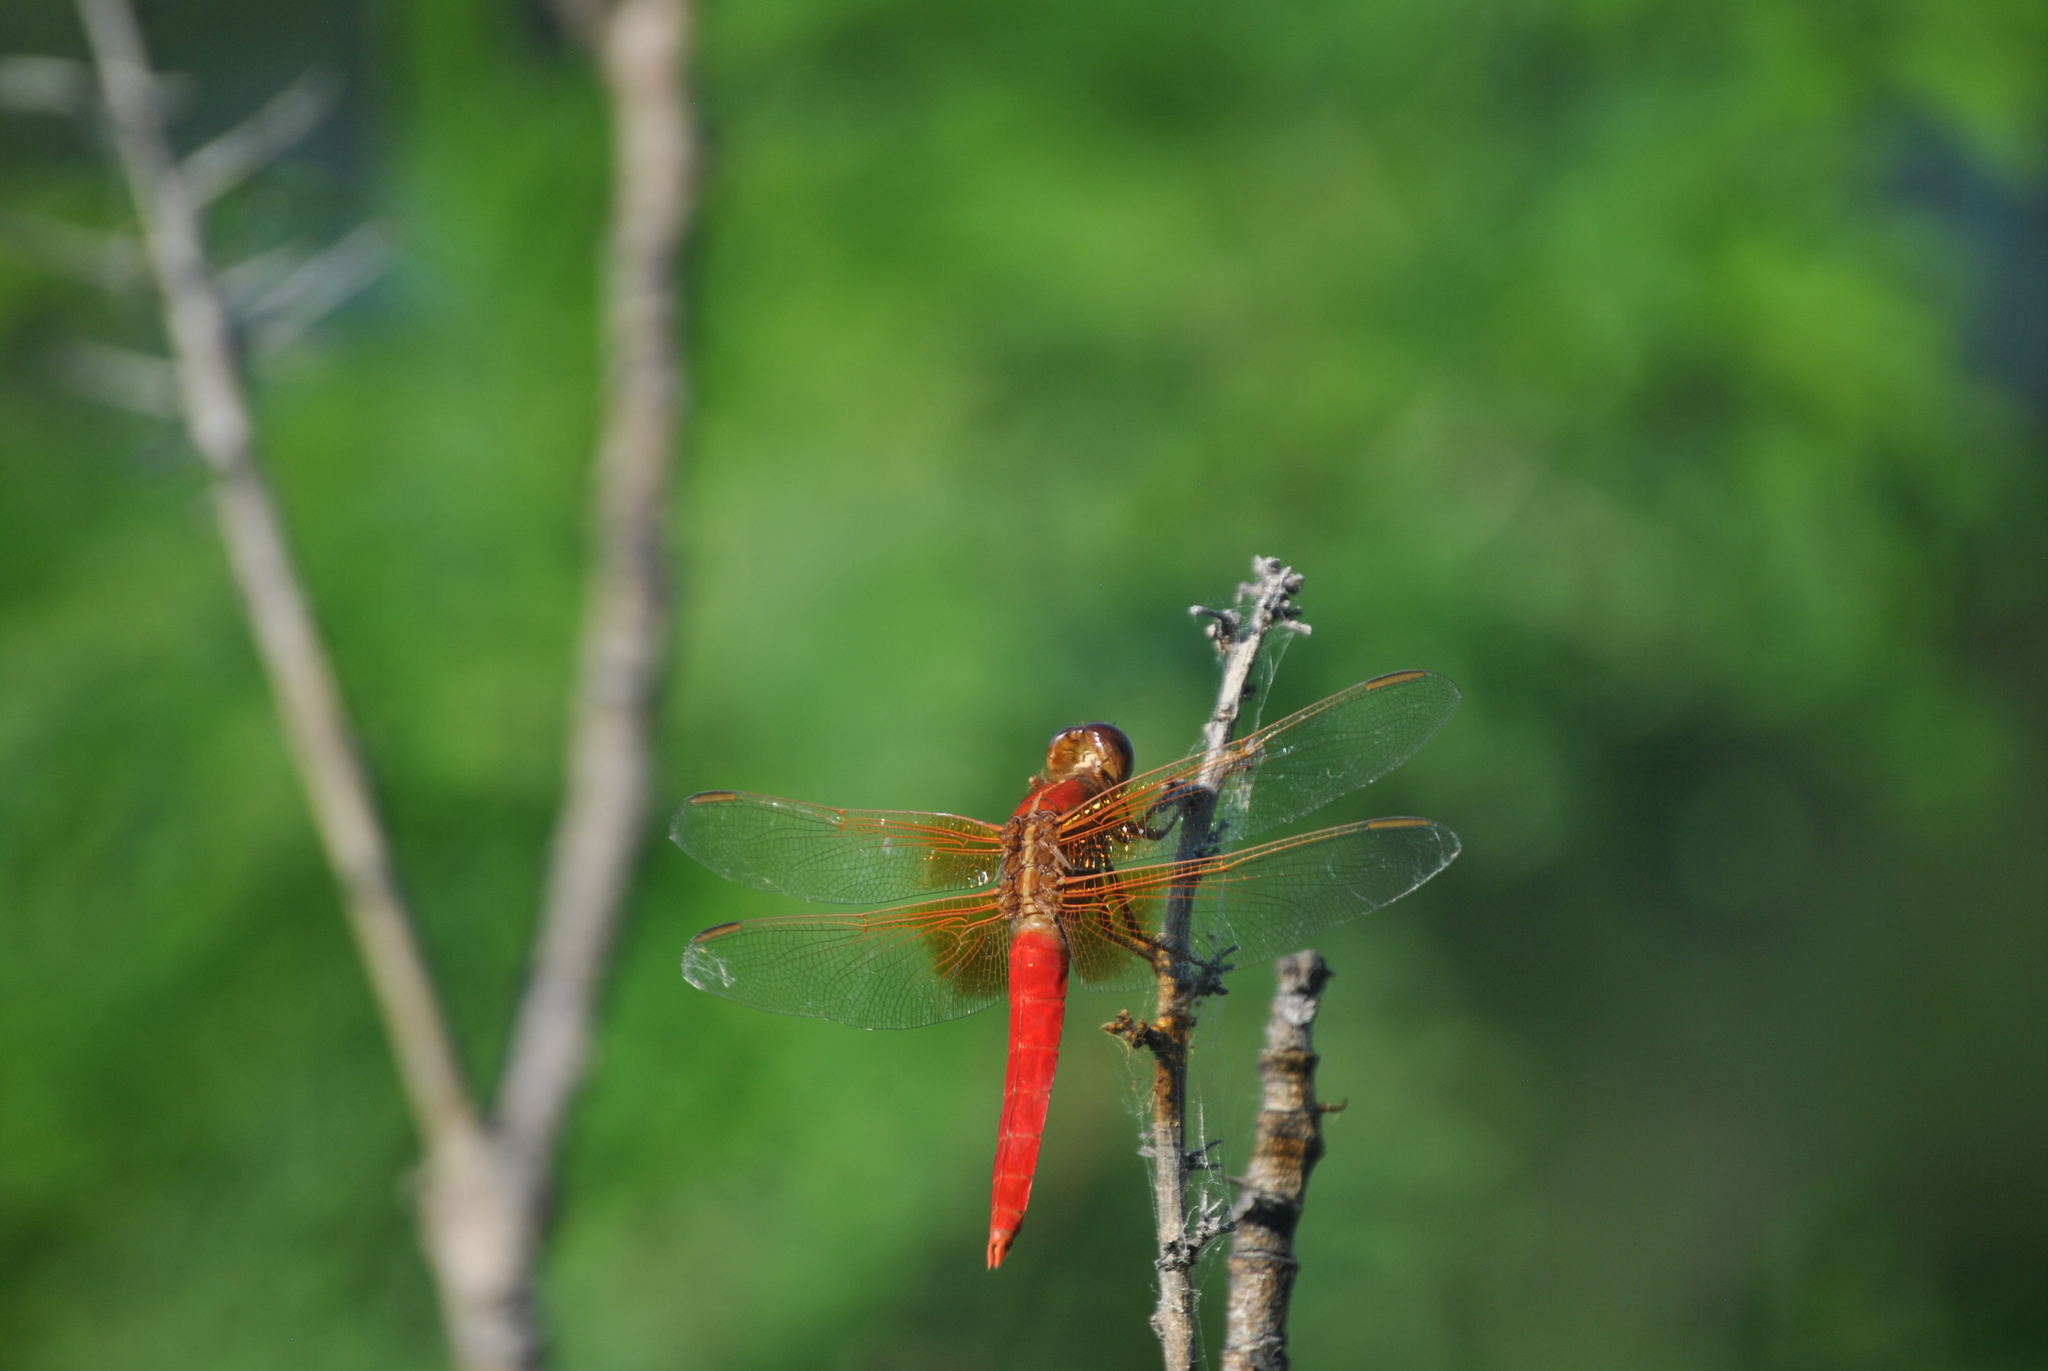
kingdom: Animalia
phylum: Arthropoda
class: Insecta
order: Odonata
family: Libellulidae
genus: Libellula
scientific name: Libellula croceipennis
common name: Neon skimmer
